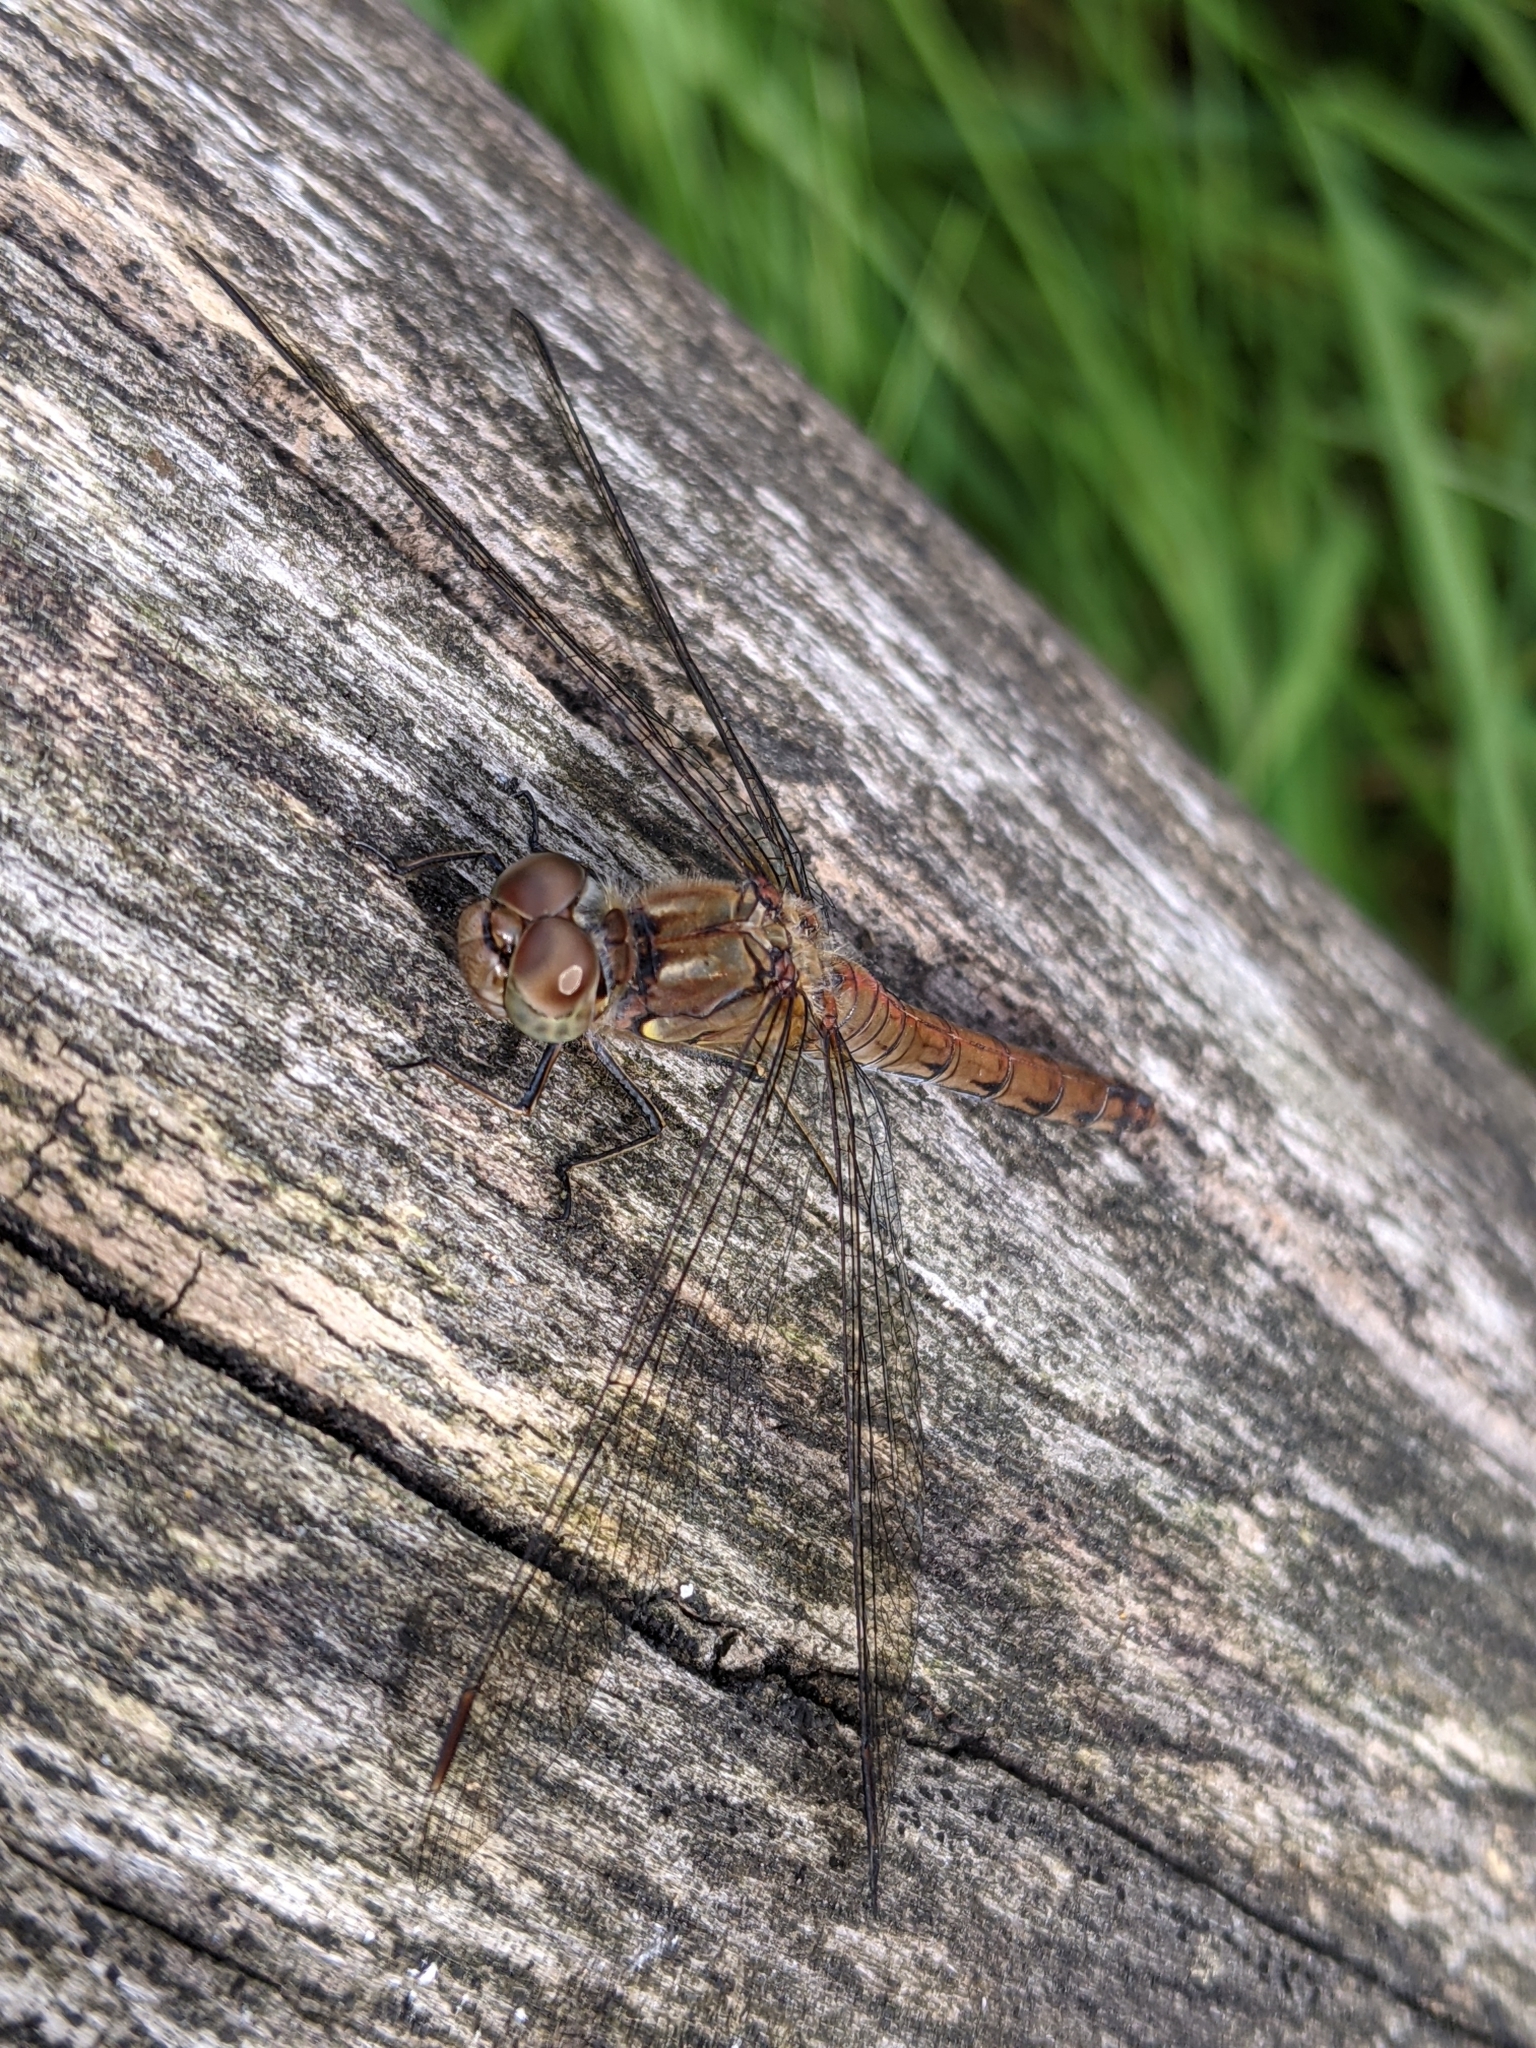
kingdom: Animalia
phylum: Arthropoda
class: Insecta
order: Odonata
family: Libellulidae
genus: Sympetrum
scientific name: Sympetrum striolatum
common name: Common darter
